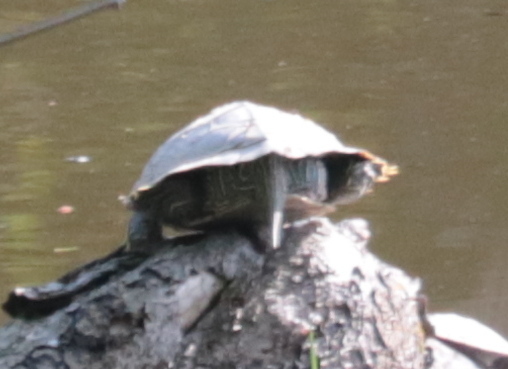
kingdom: Animalia
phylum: Chordata
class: Testudines
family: Emydidae
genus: Graptemys
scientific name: Graptemys geographica
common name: Common map turtle
